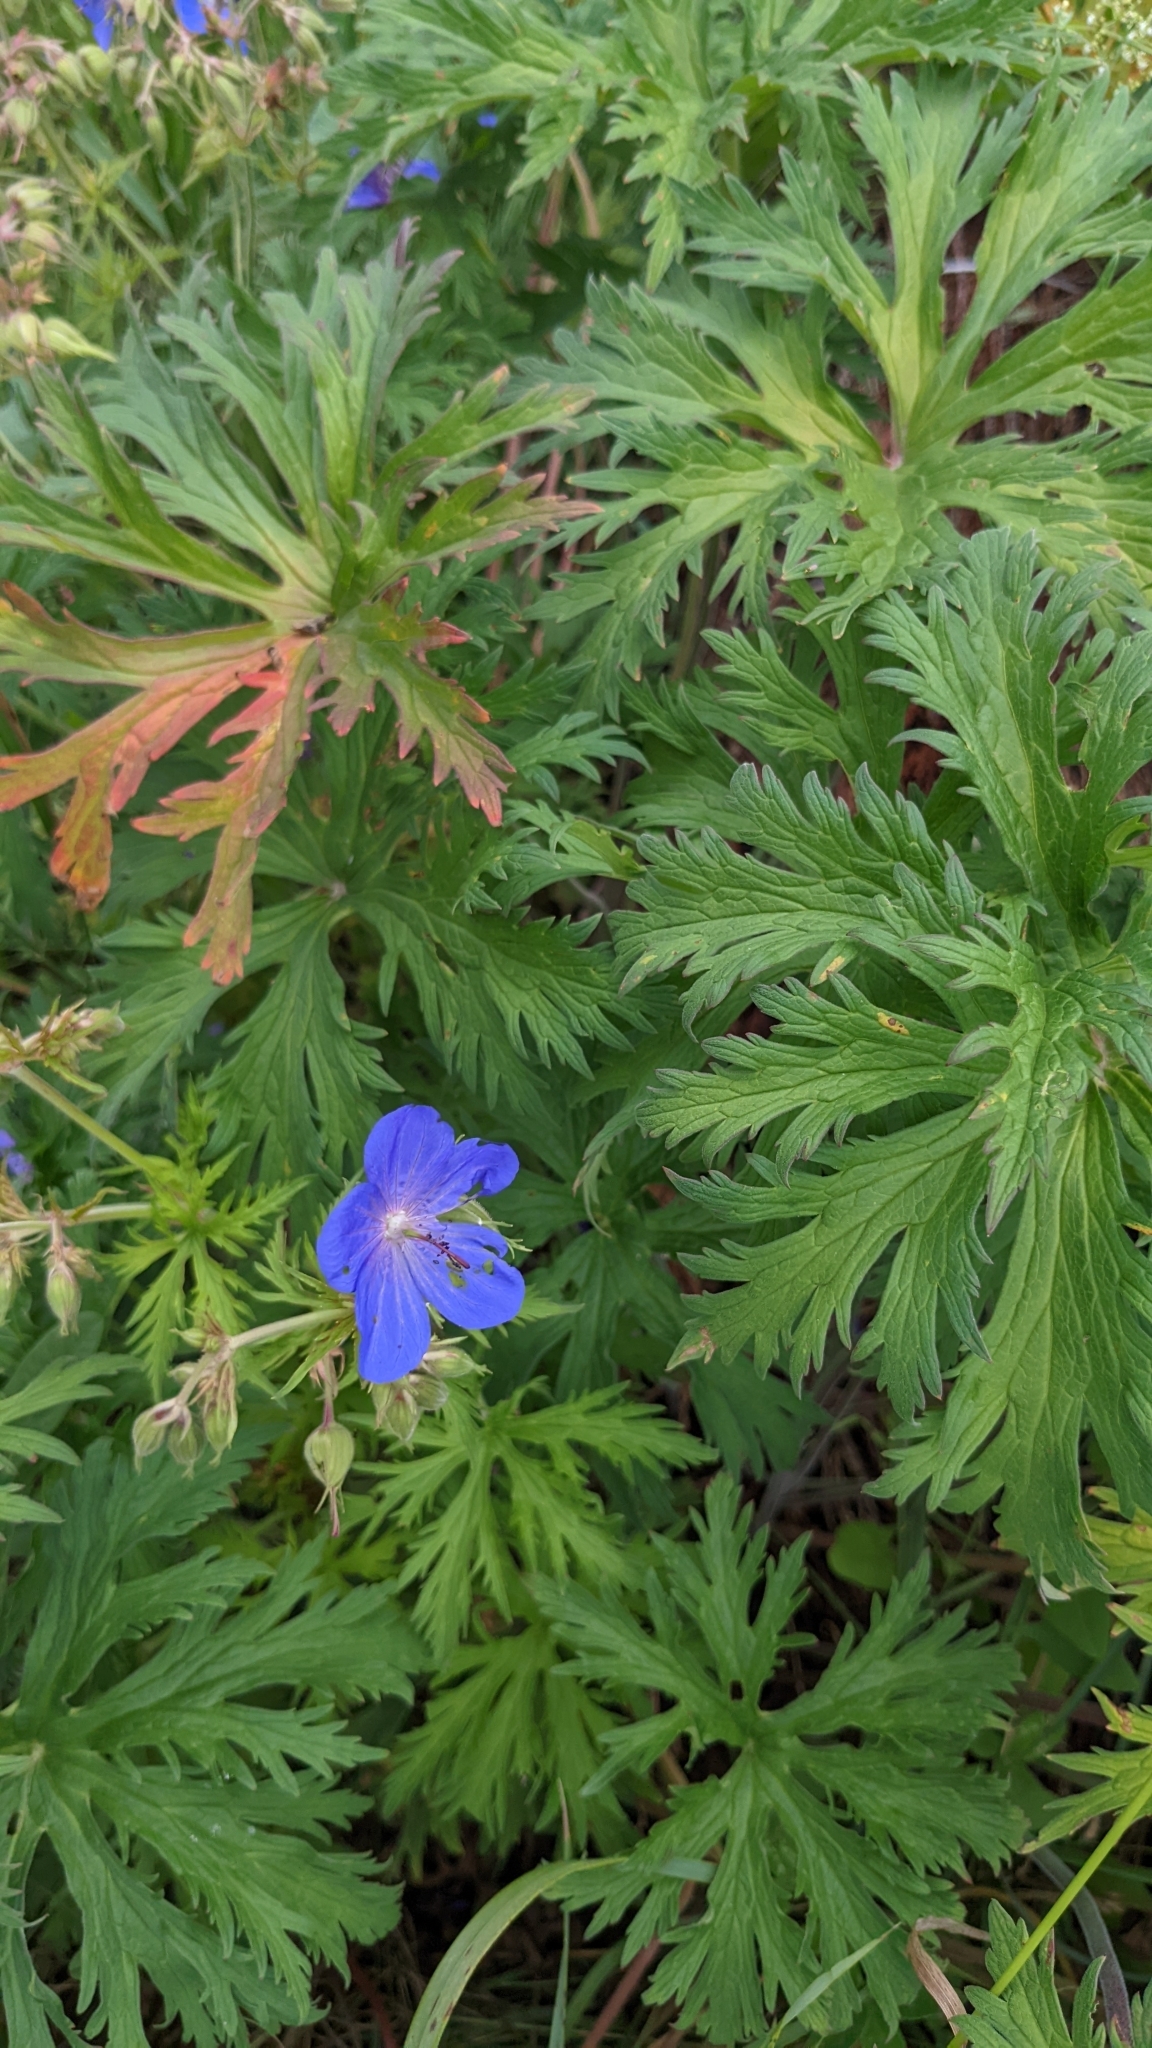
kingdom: Plantae
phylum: Tracheophyta
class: Magnoliopsida
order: Geraniales
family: Geraniaceae
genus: Geranium
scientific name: Geranium pratense
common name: Meadow crane's-bill
